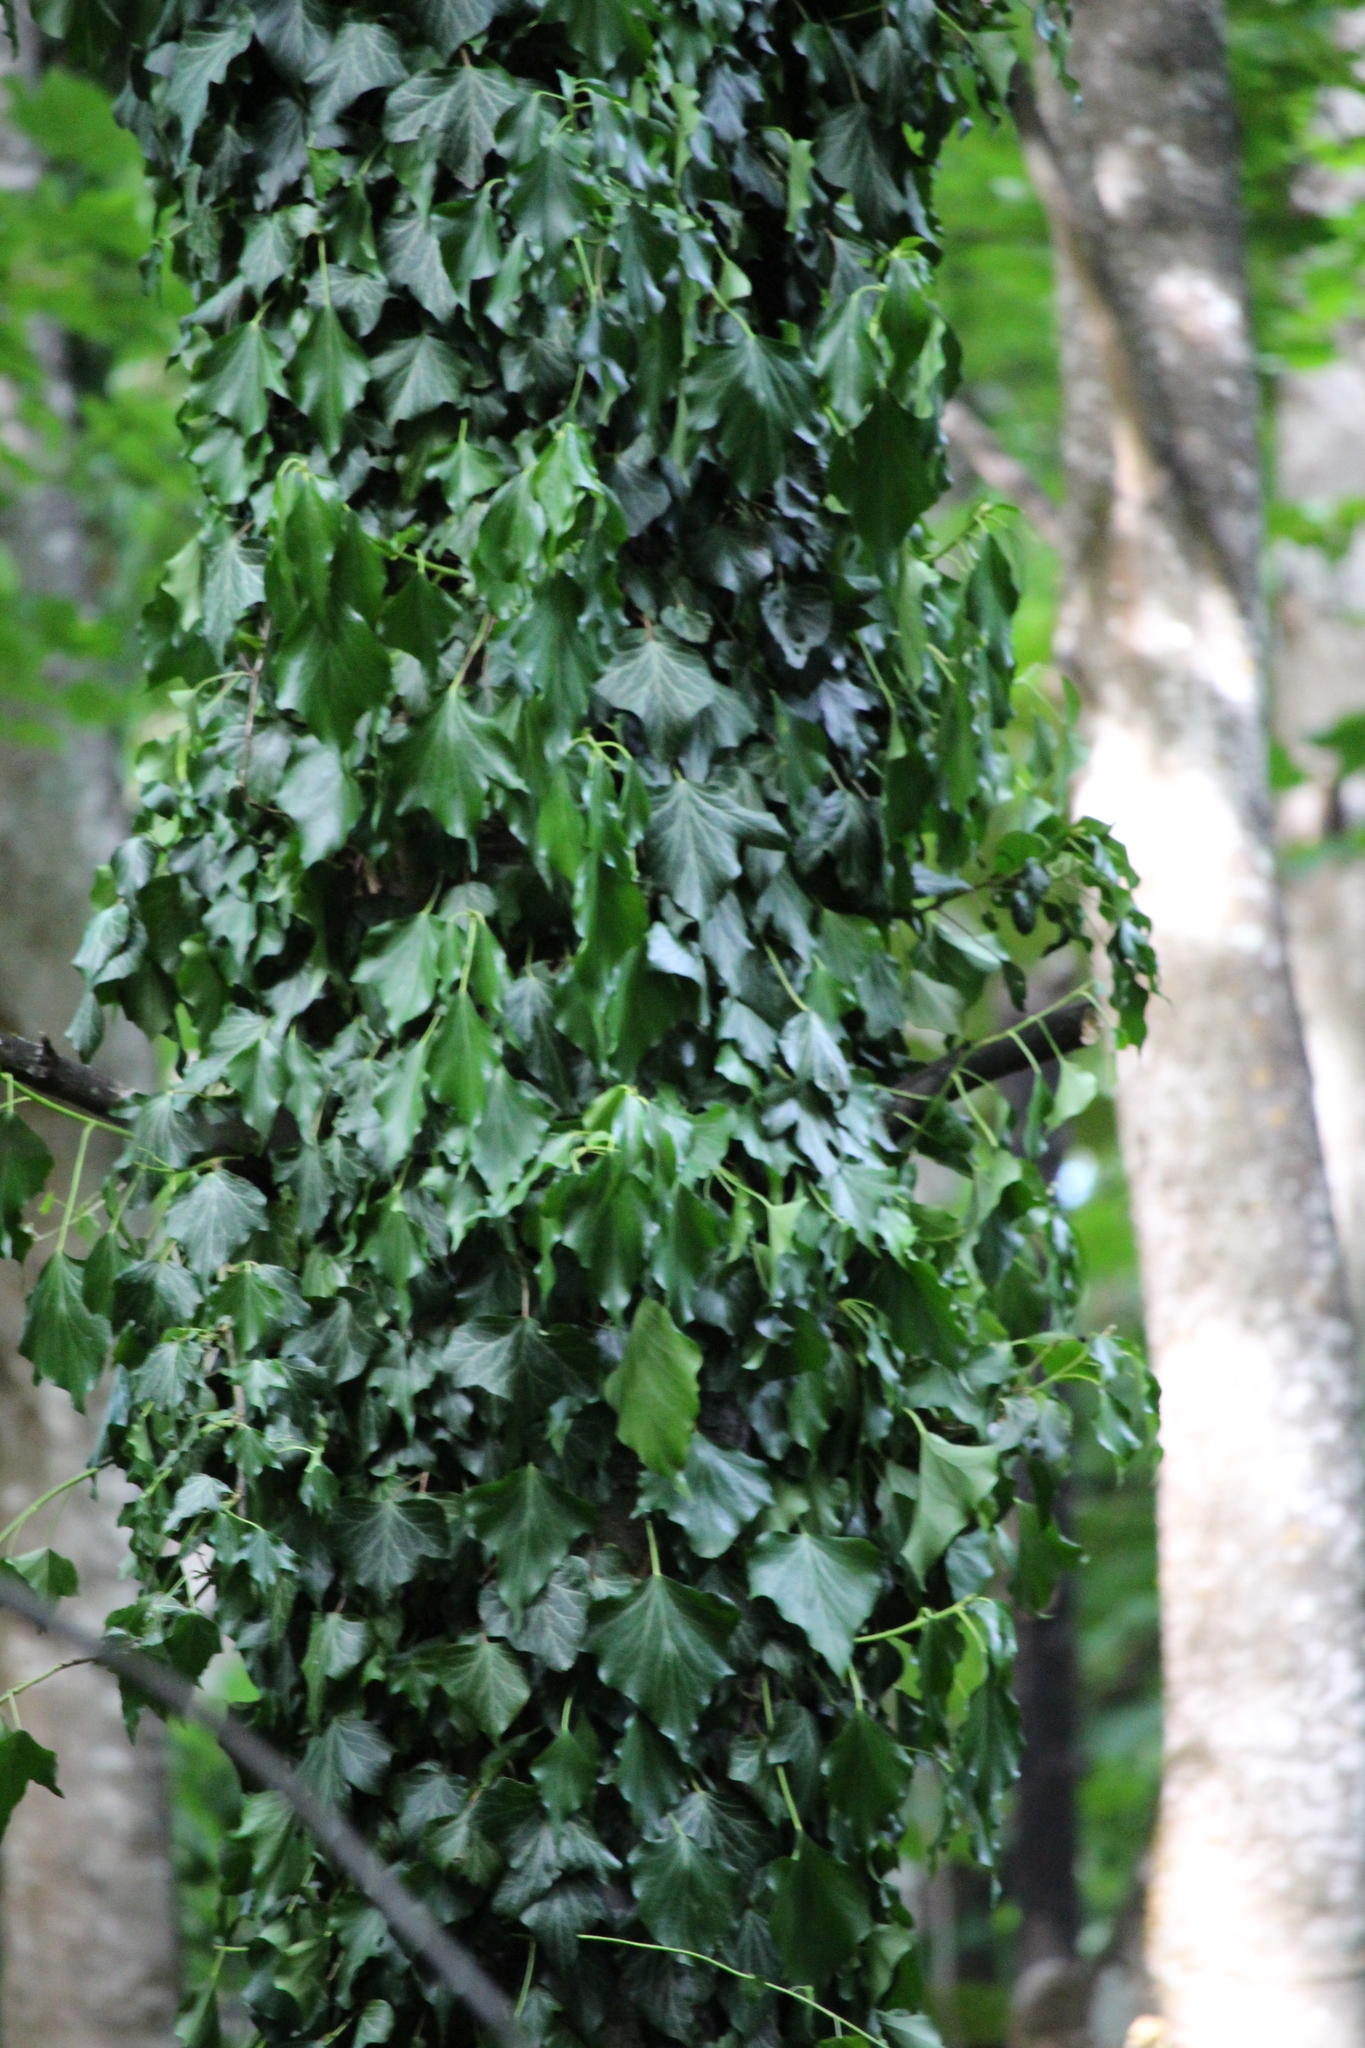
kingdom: Plantae
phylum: Tracheophyta
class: Magnoliopsida
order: Apiales
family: Araliaceae
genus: Hedera
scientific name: Hedera helix
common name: Ivy
